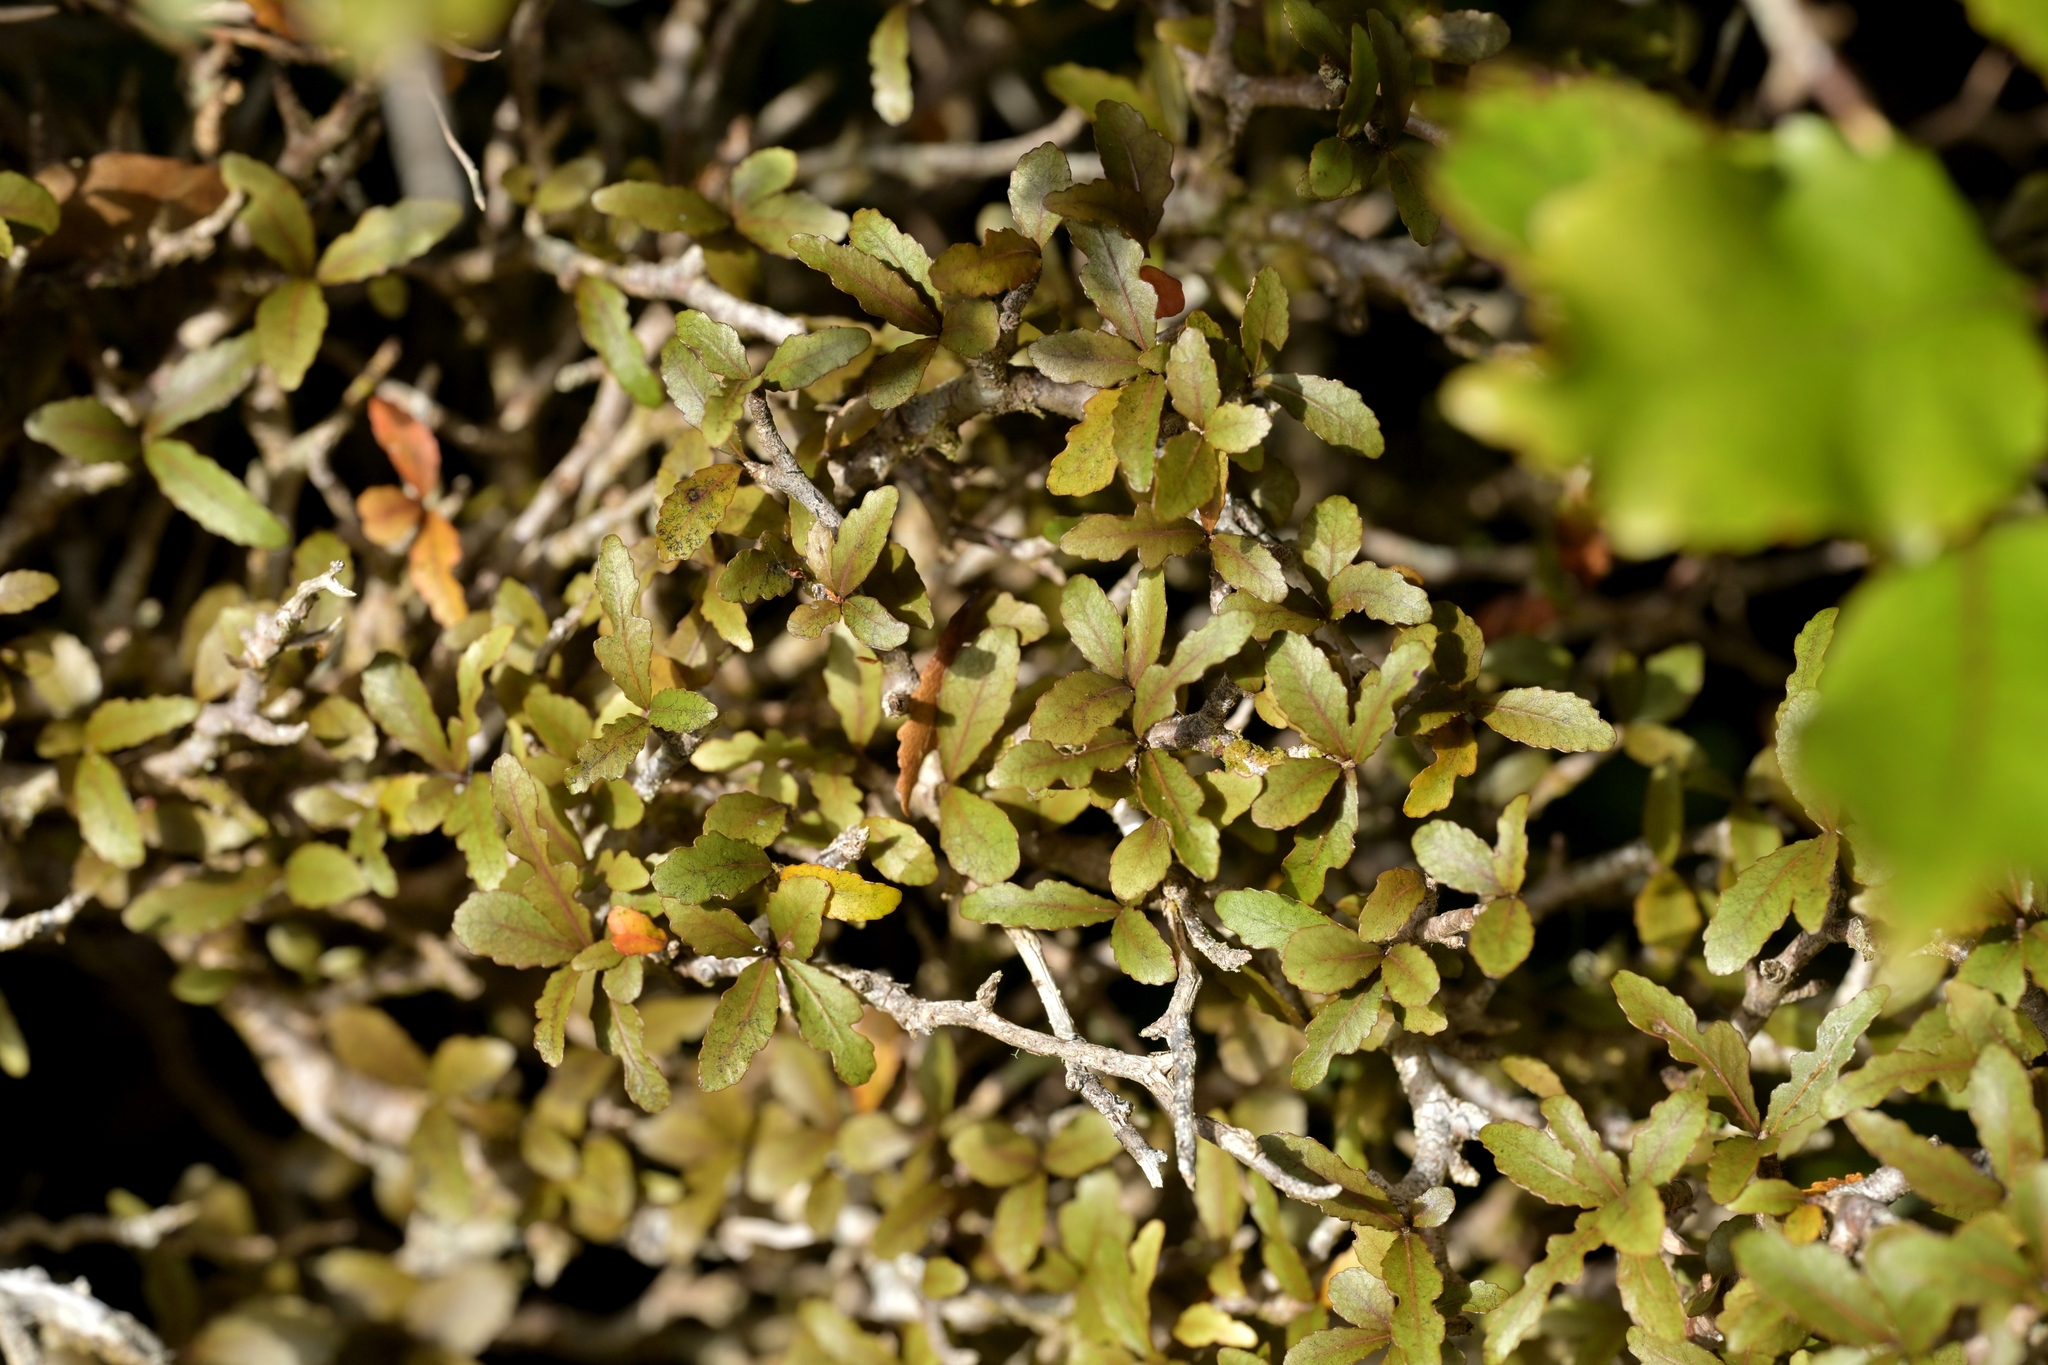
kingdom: Plantae
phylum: Tracheophyta
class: Magnoliopsida
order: Oxalidales
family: Elaeocarpaceae
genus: Elaeocarpus
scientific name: Elaeocarpus hookerianus
